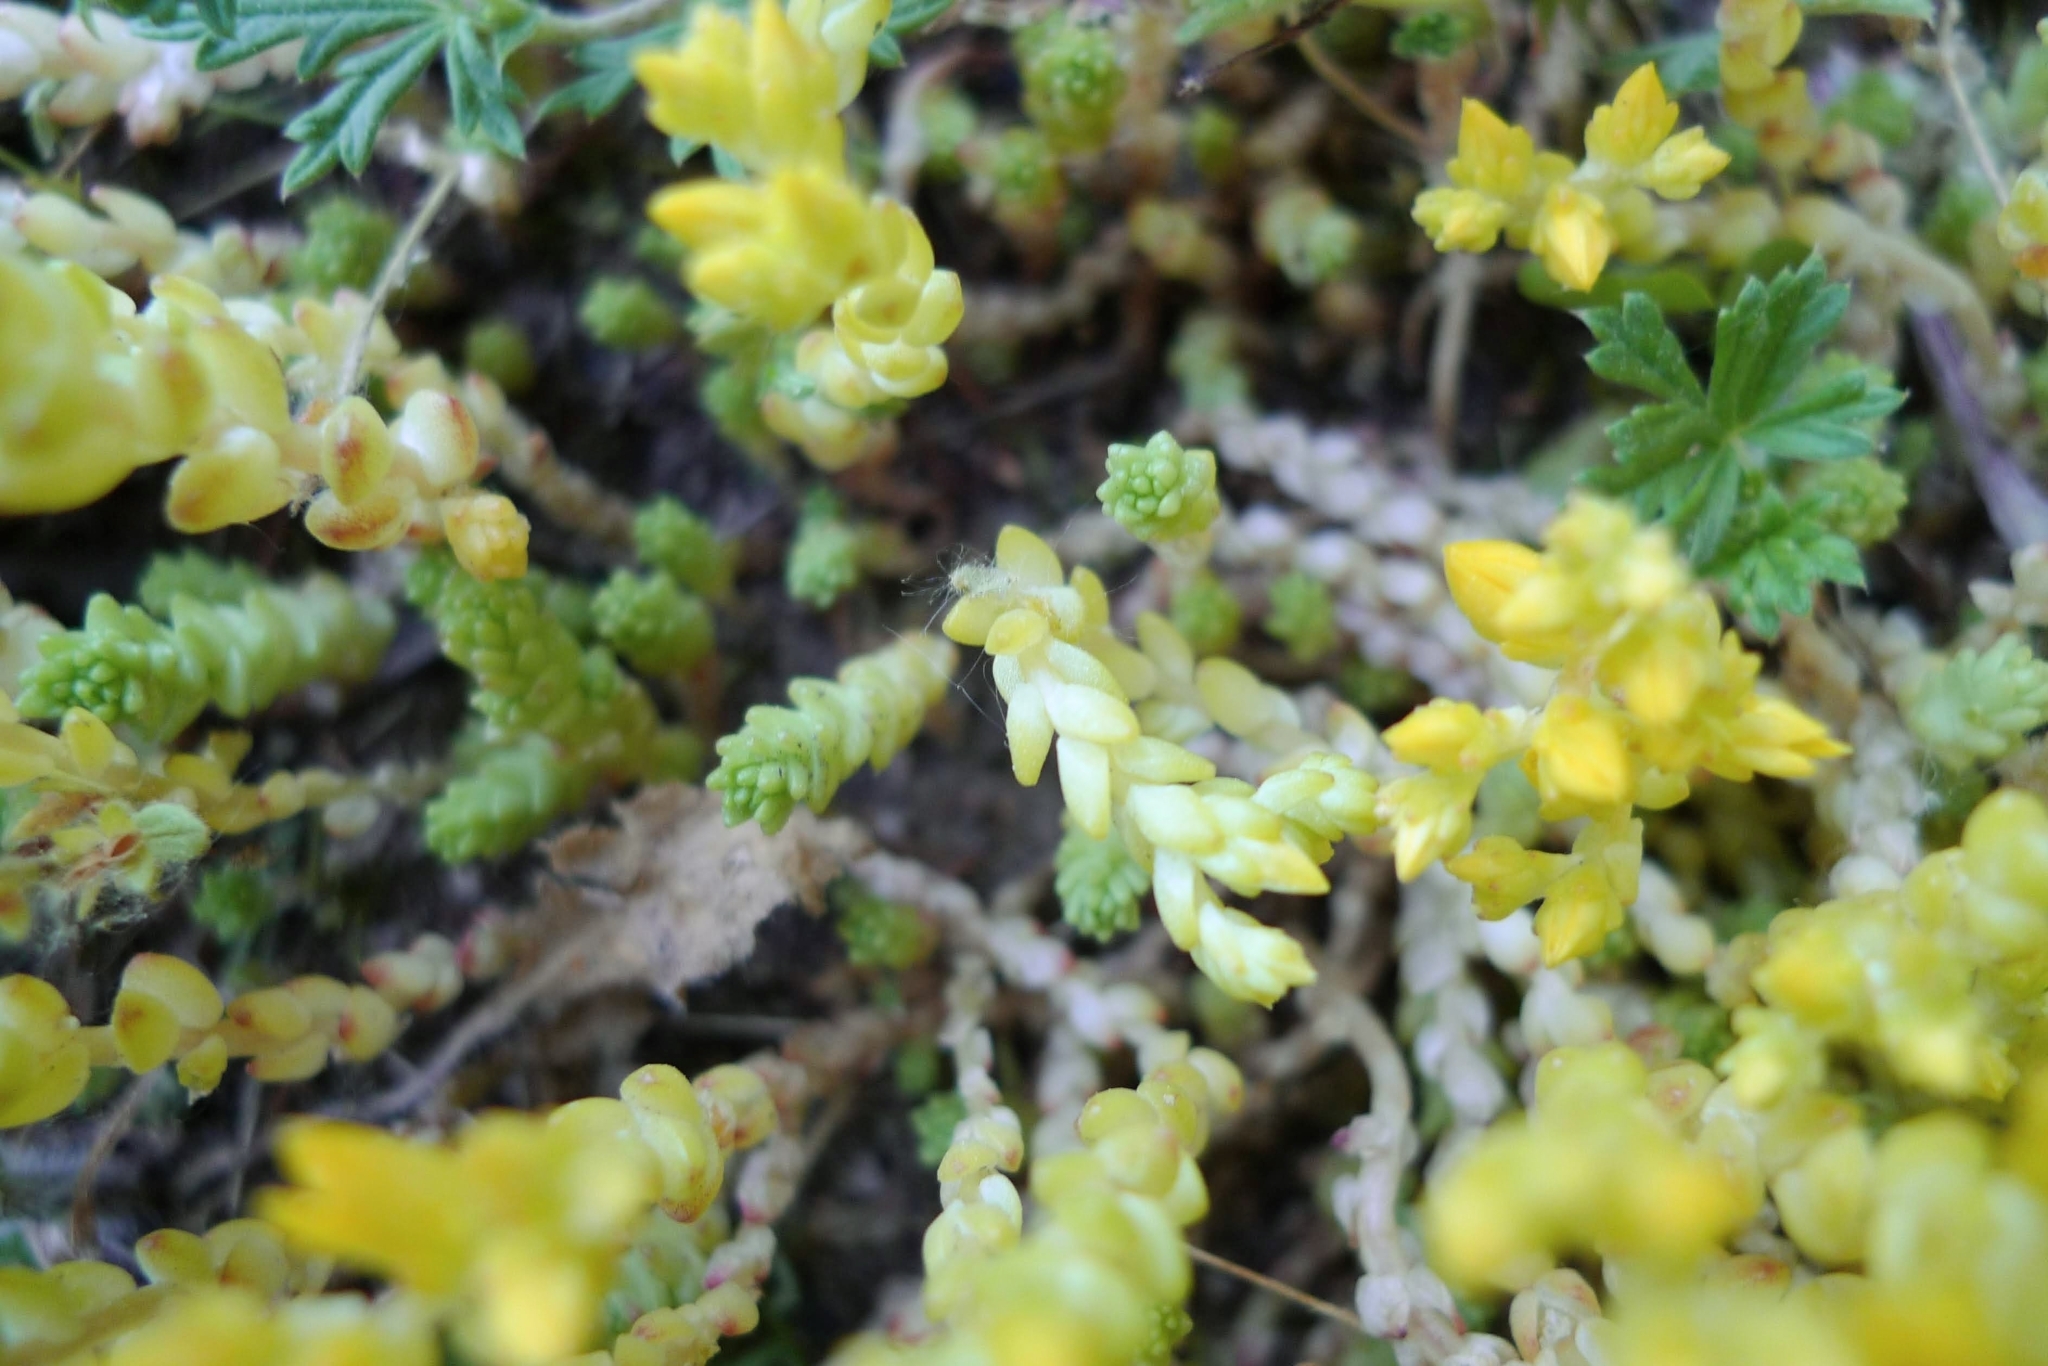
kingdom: Plantae
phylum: Tracheophyta
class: Magnoliopsida
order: Saxifragales
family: Crassulaceae
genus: Sedum
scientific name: Sedum acre
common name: Biting stonecrop
